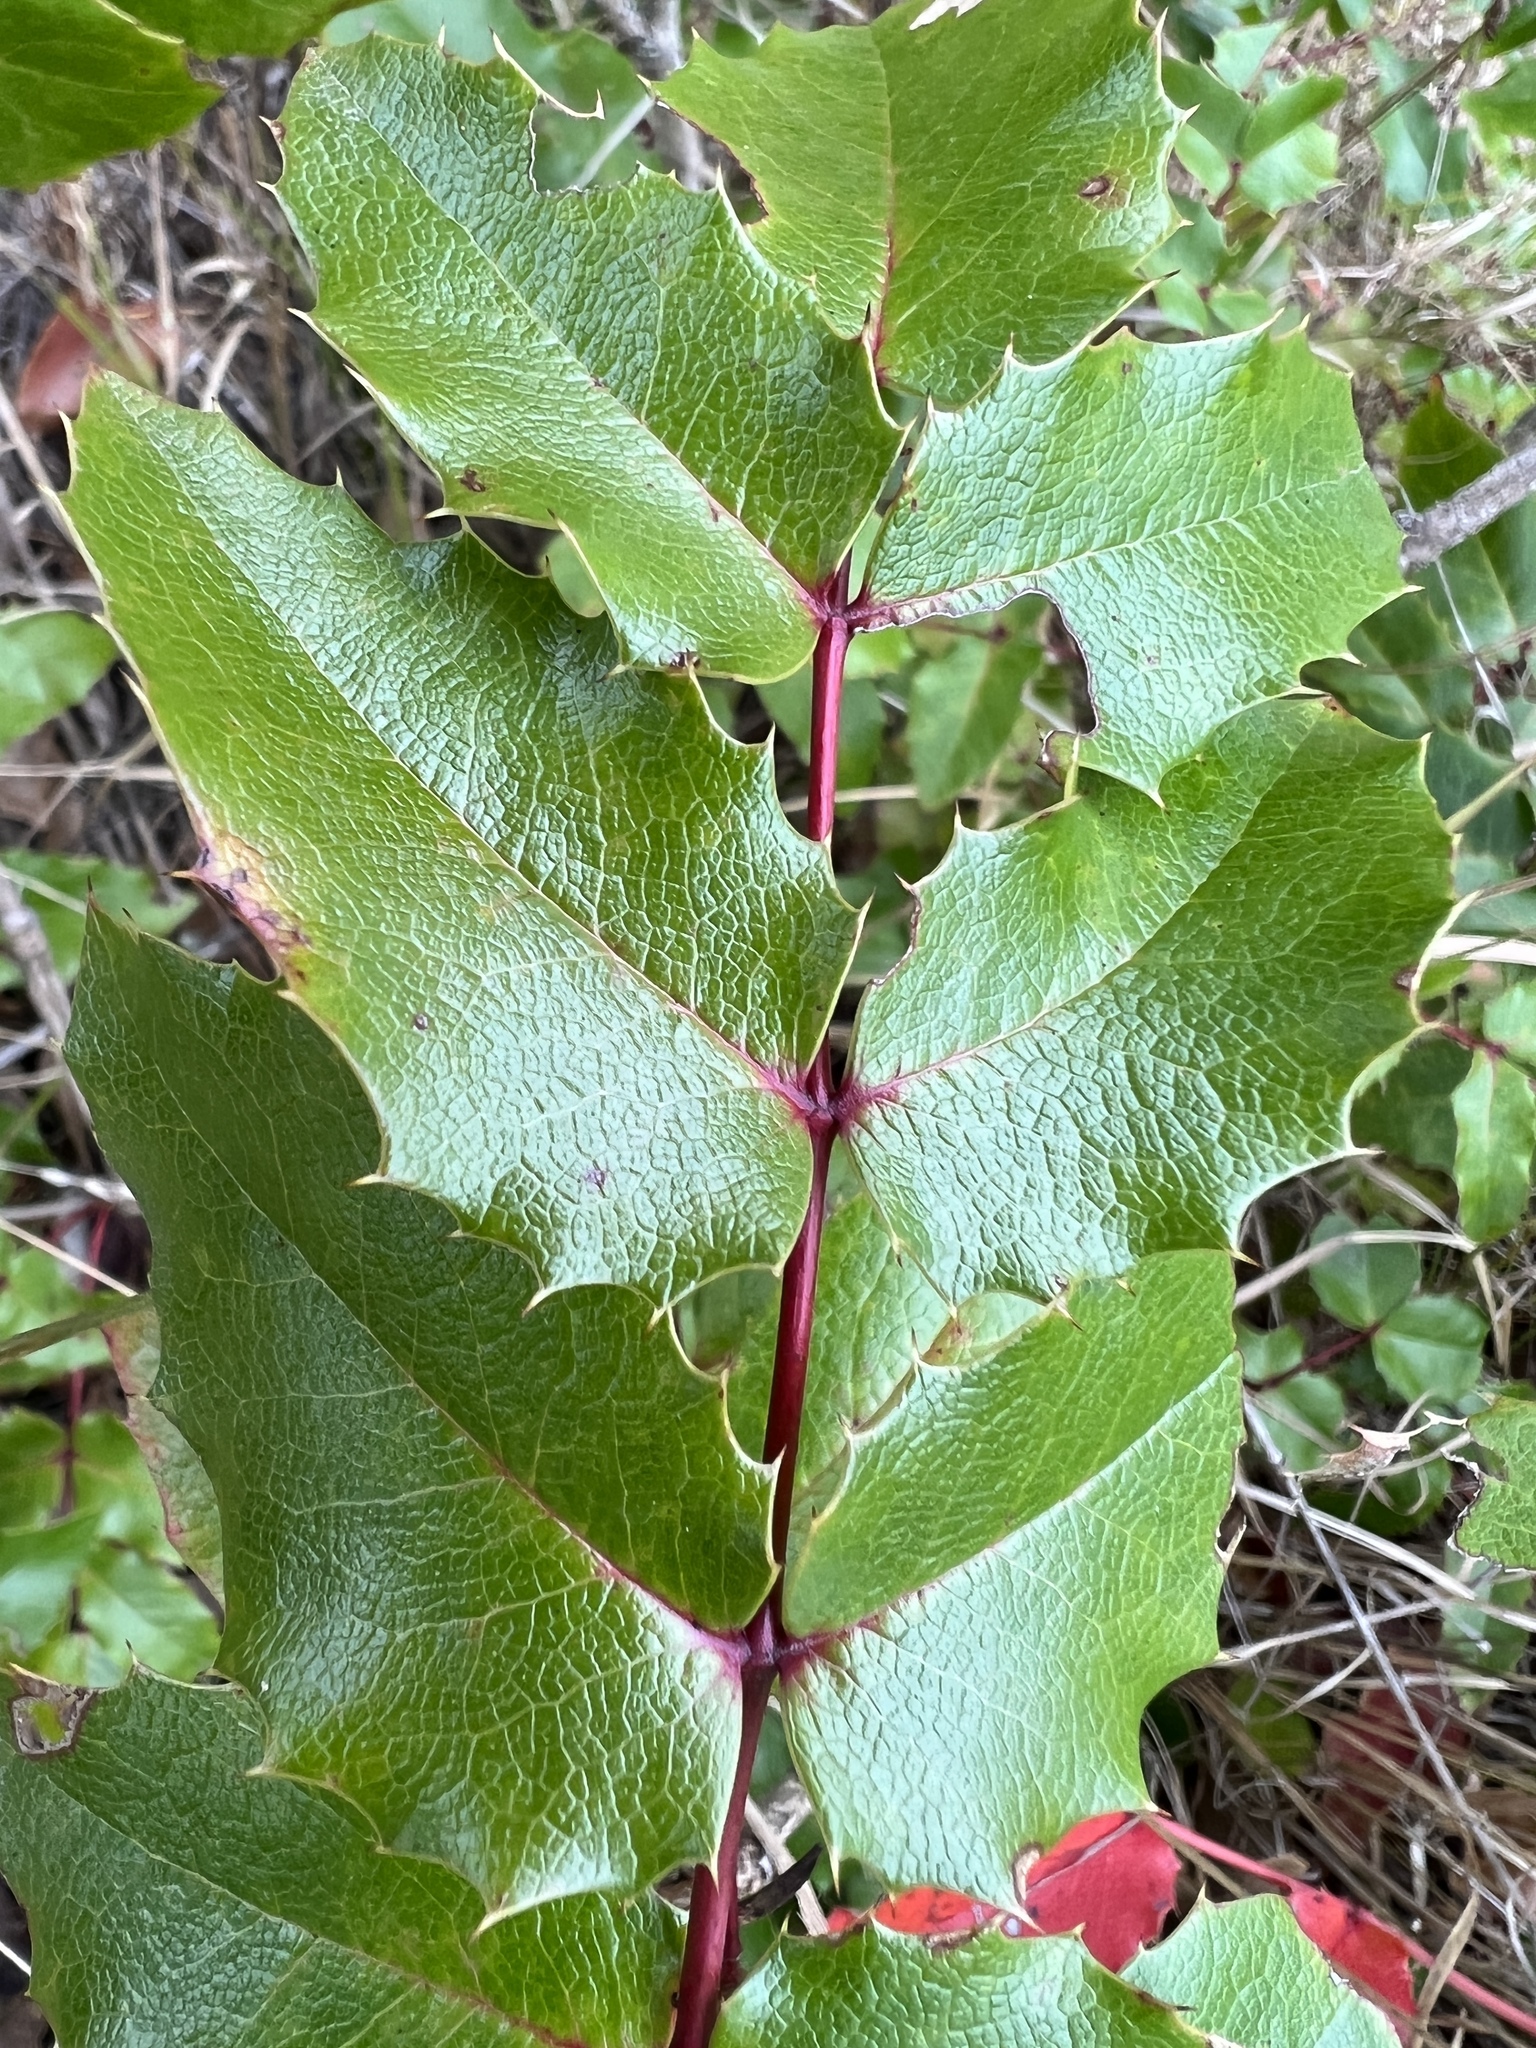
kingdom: Plantae
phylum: Tracheophyta
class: Magnoliopsida
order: Ranunculales
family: Berberidaceae
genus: Mahonia
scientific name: Mahonia aquifolium
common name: Oregon-grape
